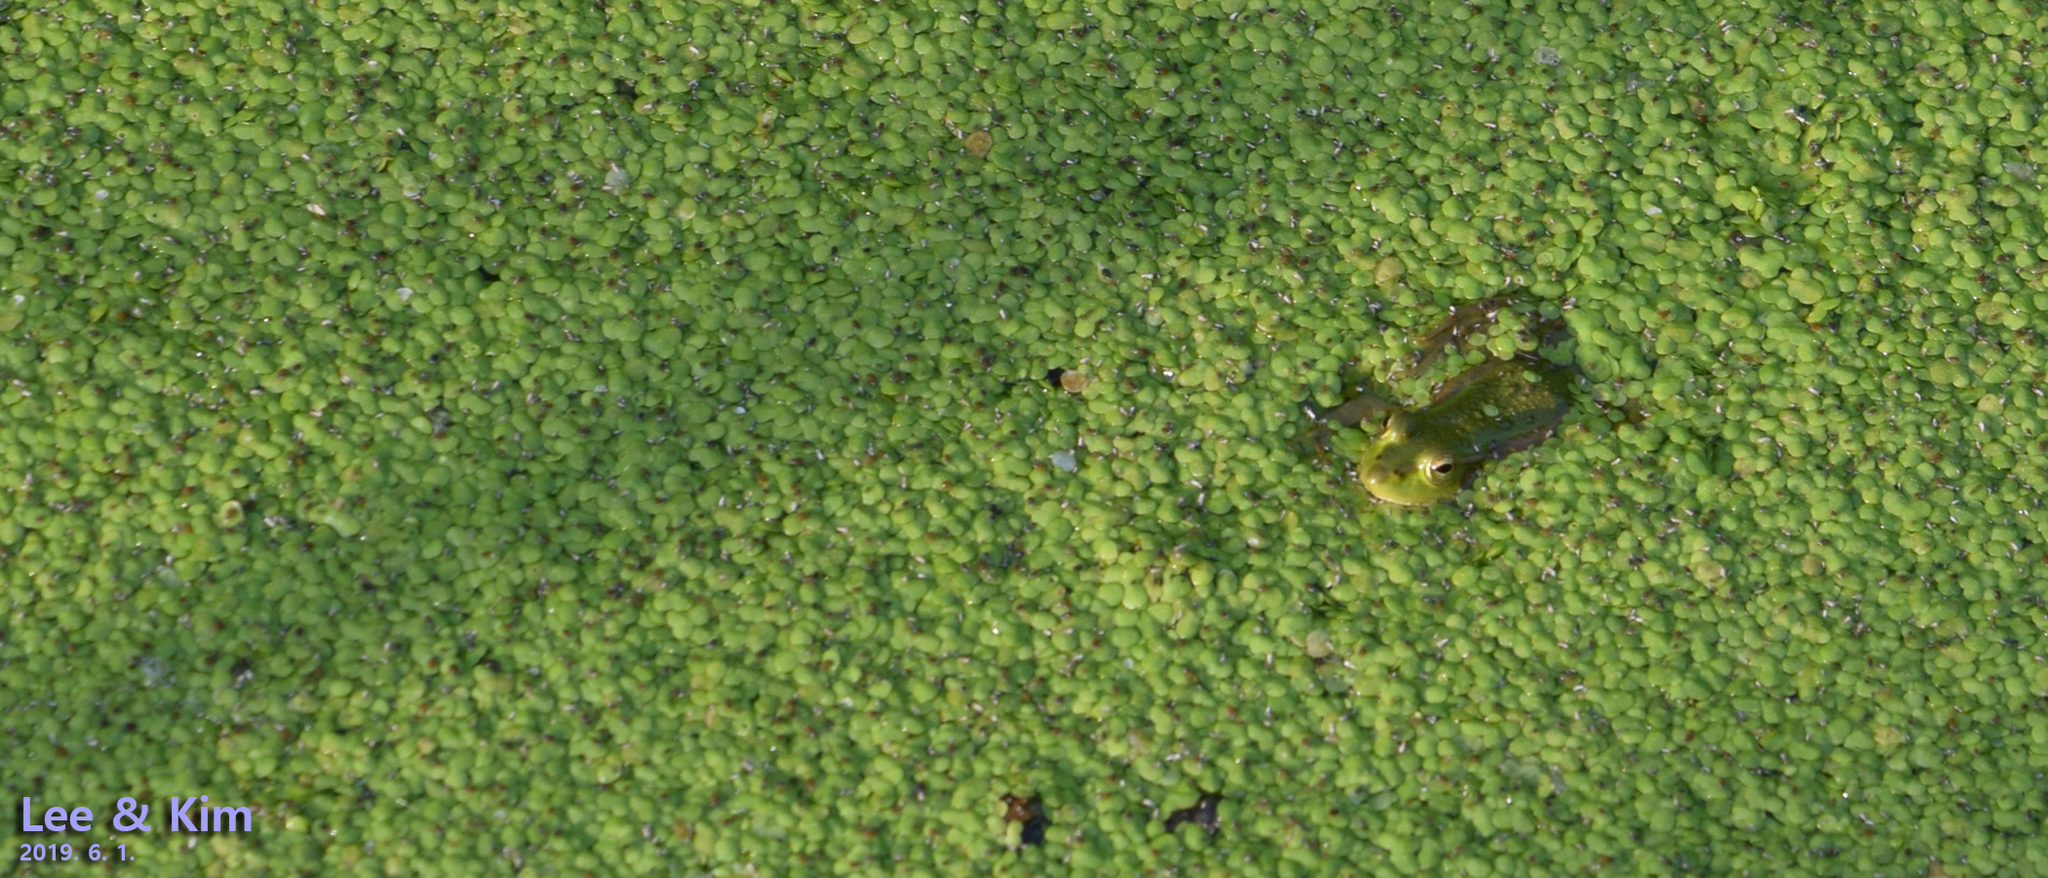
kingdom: Animalia
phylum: Chordata
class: Amphibia
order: Anura
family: Ranidae
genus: Pelophylax
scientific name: Pelophylax chosenicus
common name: Gold-spotted pond frog
